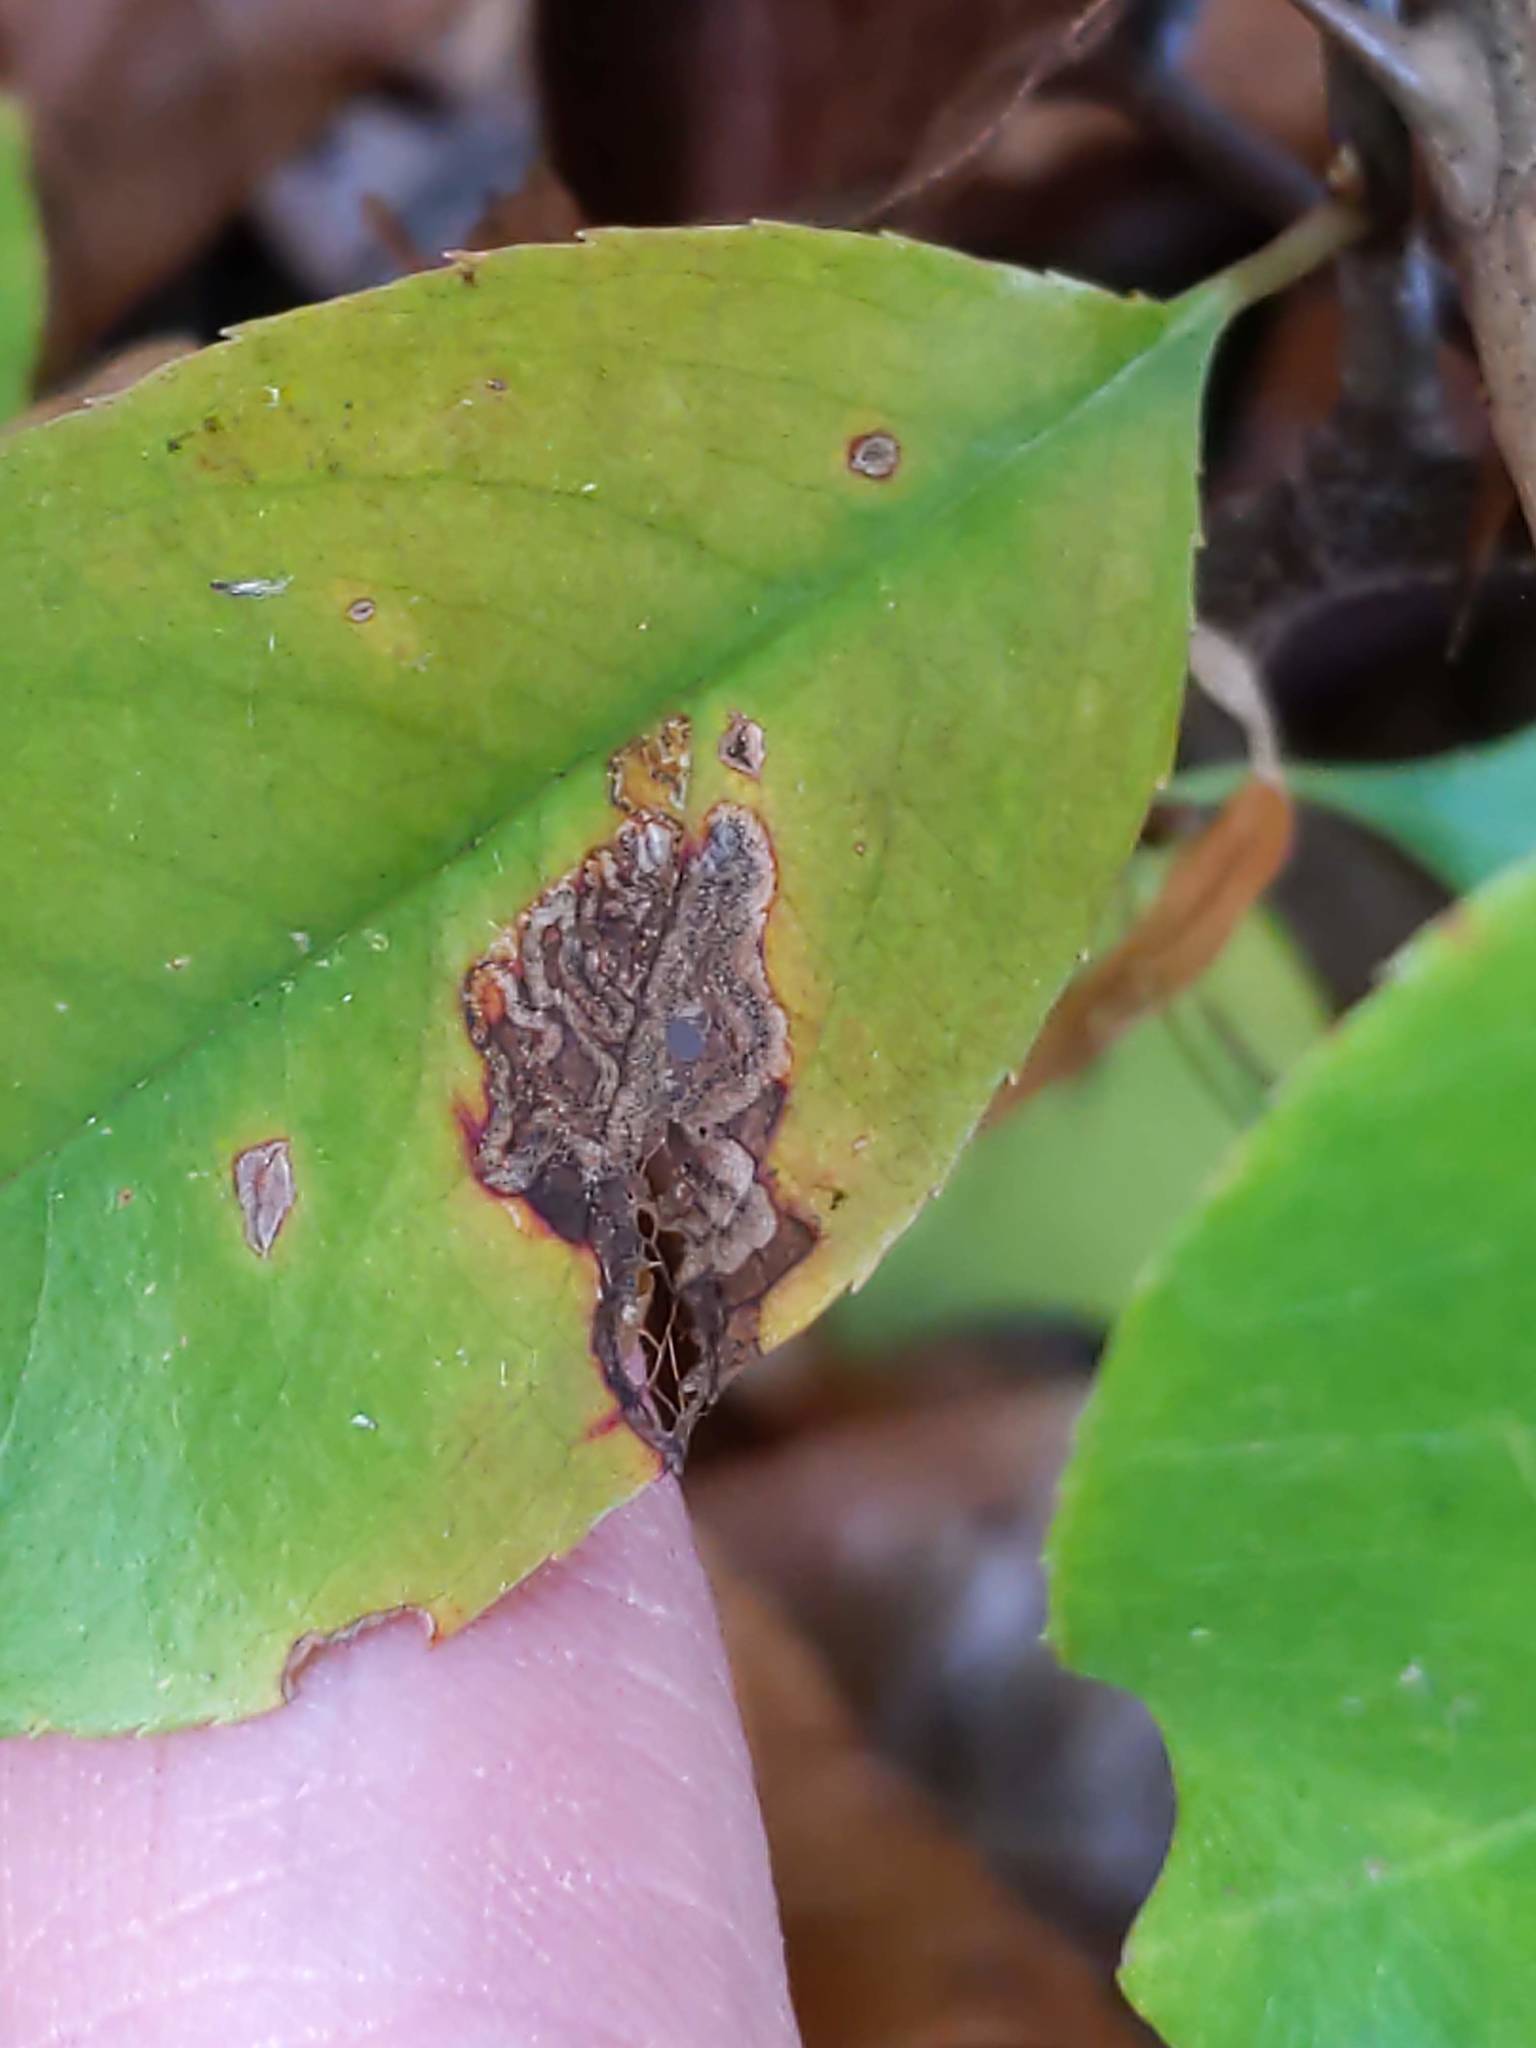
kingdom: Animalia
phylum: Arthropoda
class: Insecta
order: Lepidoptera
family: Nepticulidae
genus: Stigmella
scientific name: Stigmella prunifoliella
